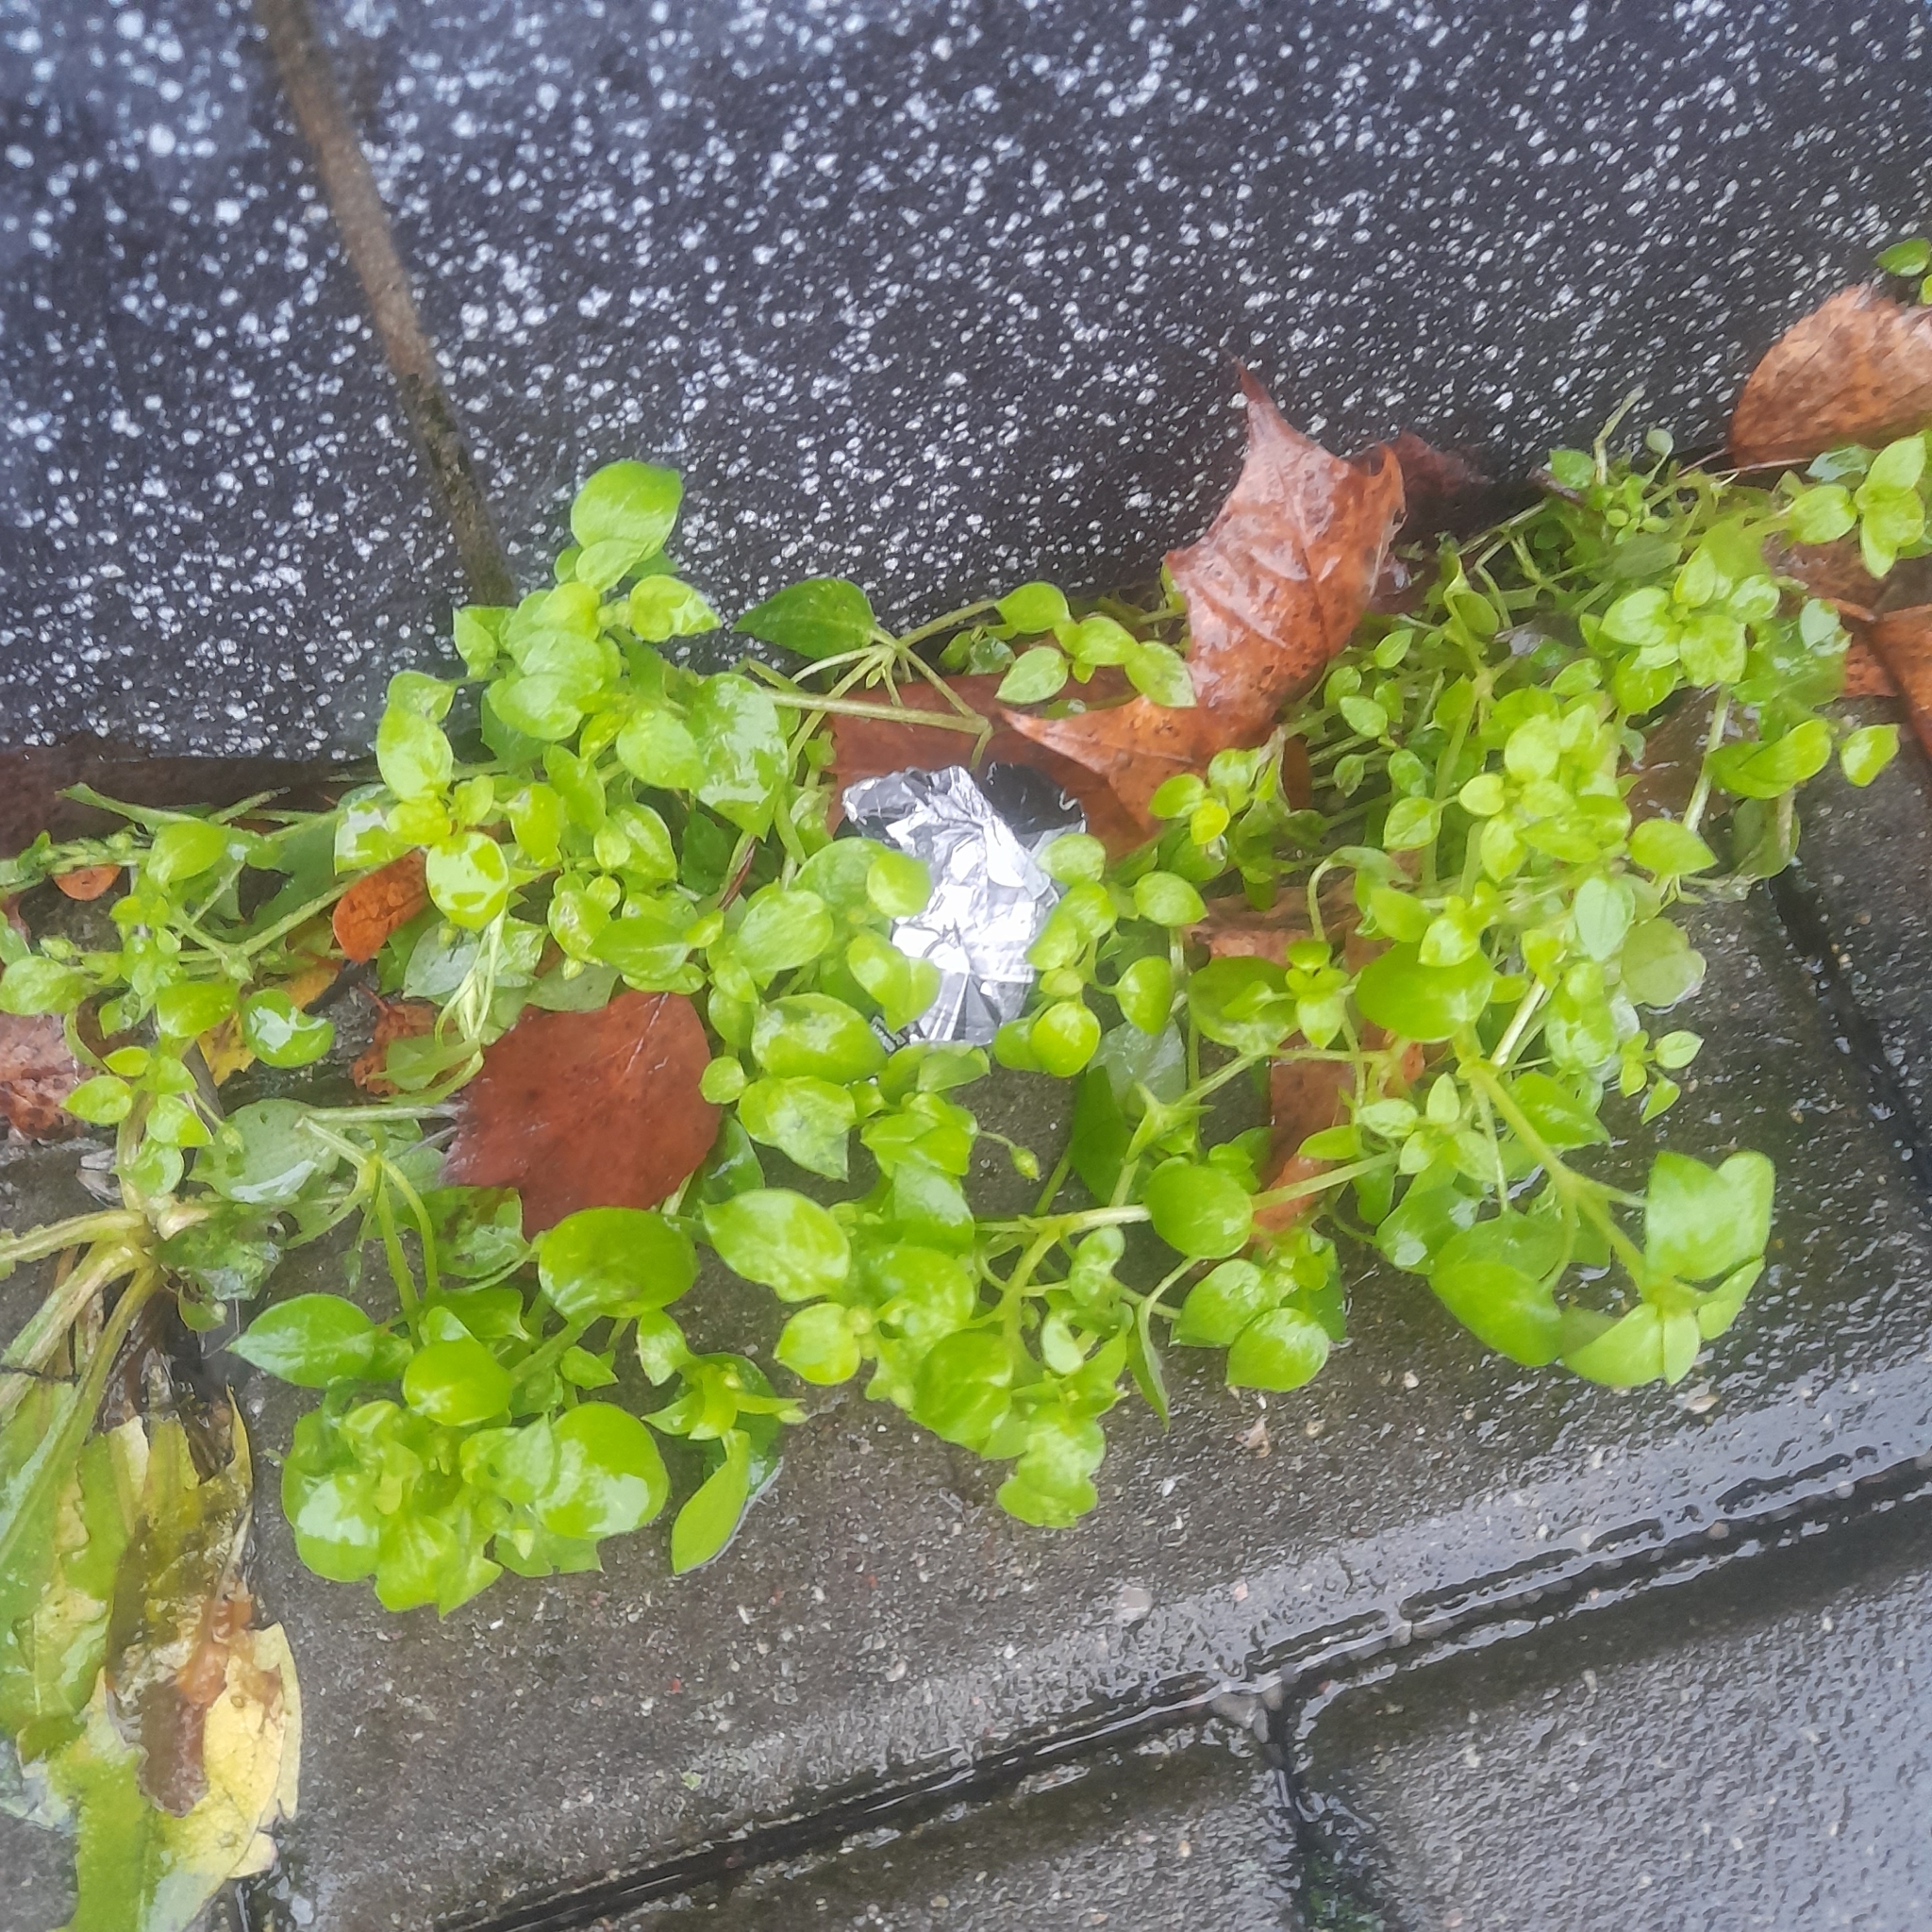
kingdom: Plantae
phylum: Tracheophyta
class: Magnoliopsida
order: Caryophyllales
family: Caryophyllaceae
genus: Stellaria
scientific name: Stellaria media
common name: Common chickweed
